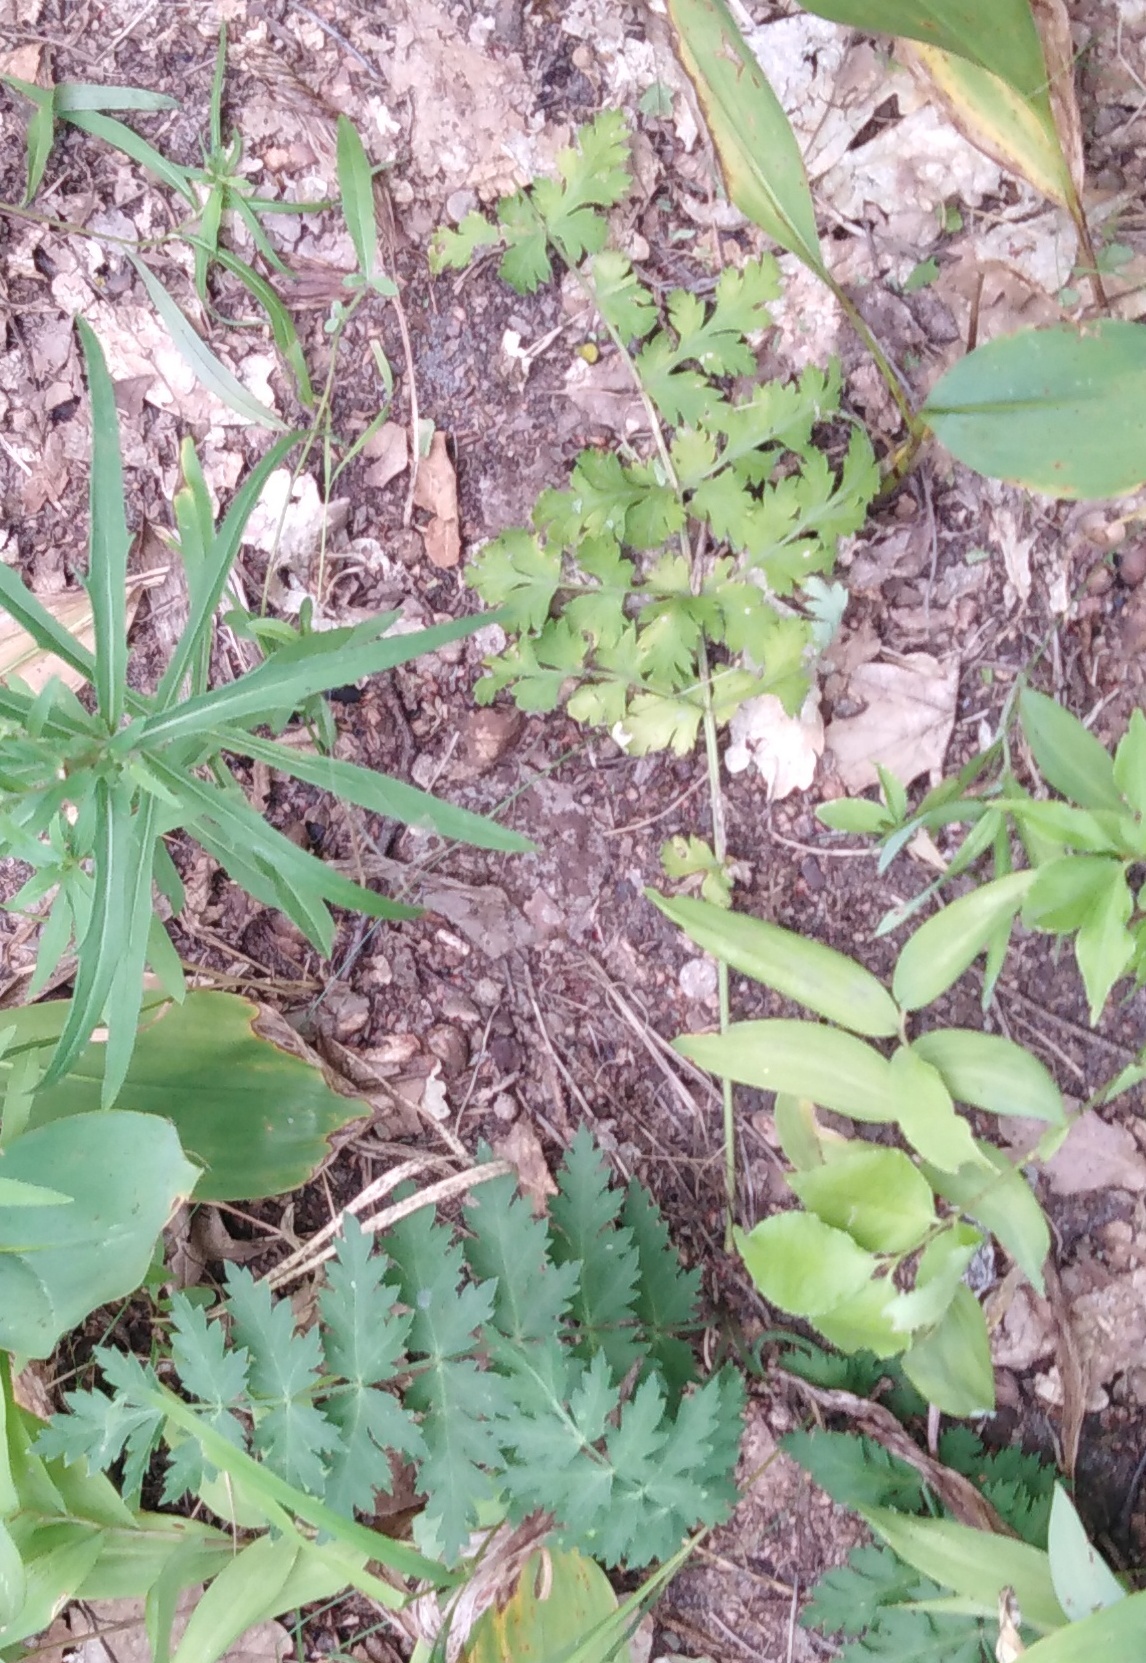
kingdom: Plantae
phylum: Tracheophyta
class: Magnoliopsida
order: Apiales
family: Apiaceae
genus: Seseli
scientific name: Seseli libanotis
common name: Mooncarrot
